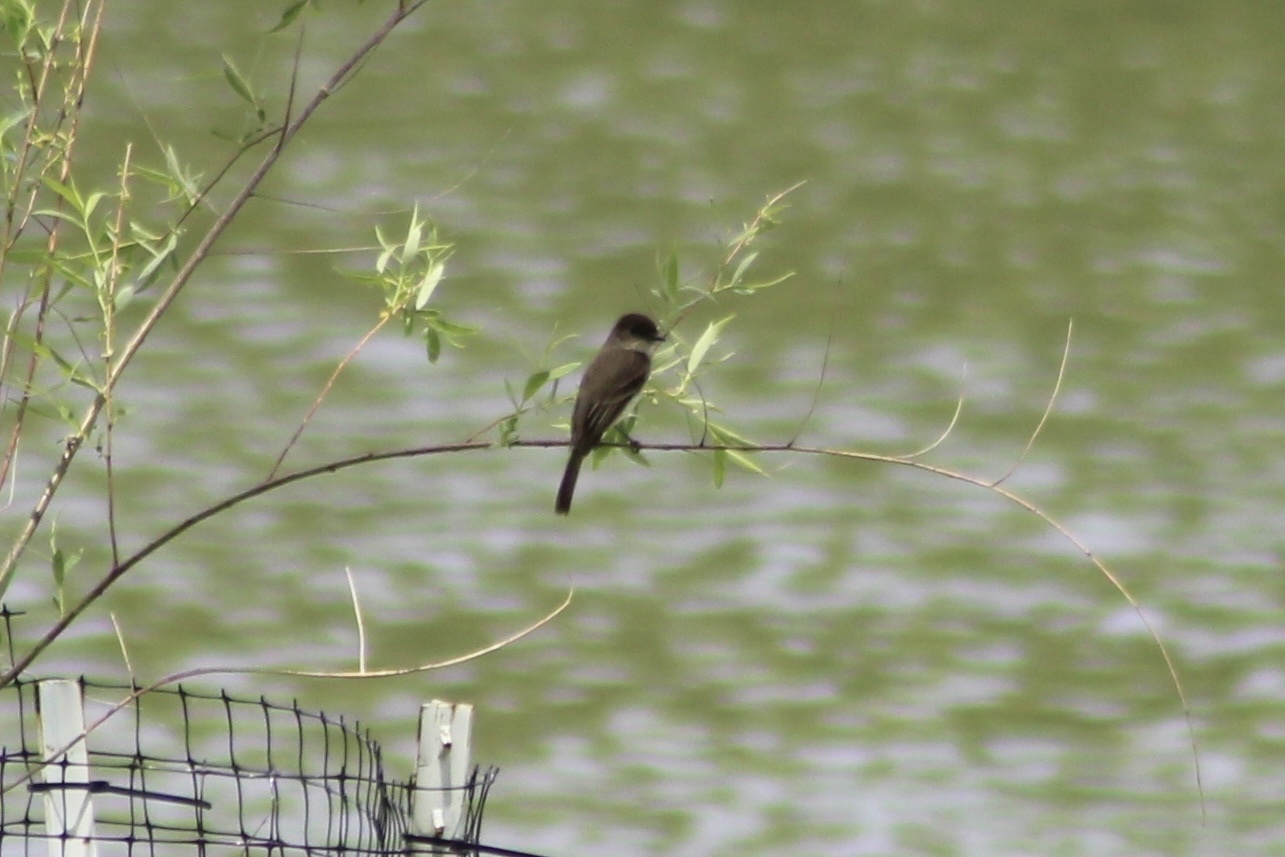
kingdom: Animalia
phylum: Chordata
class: Aves
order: Passeriformes
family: Tyrannidae
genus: Sayornis
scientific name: Sayornis phoebe
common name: Eastern phoebe
